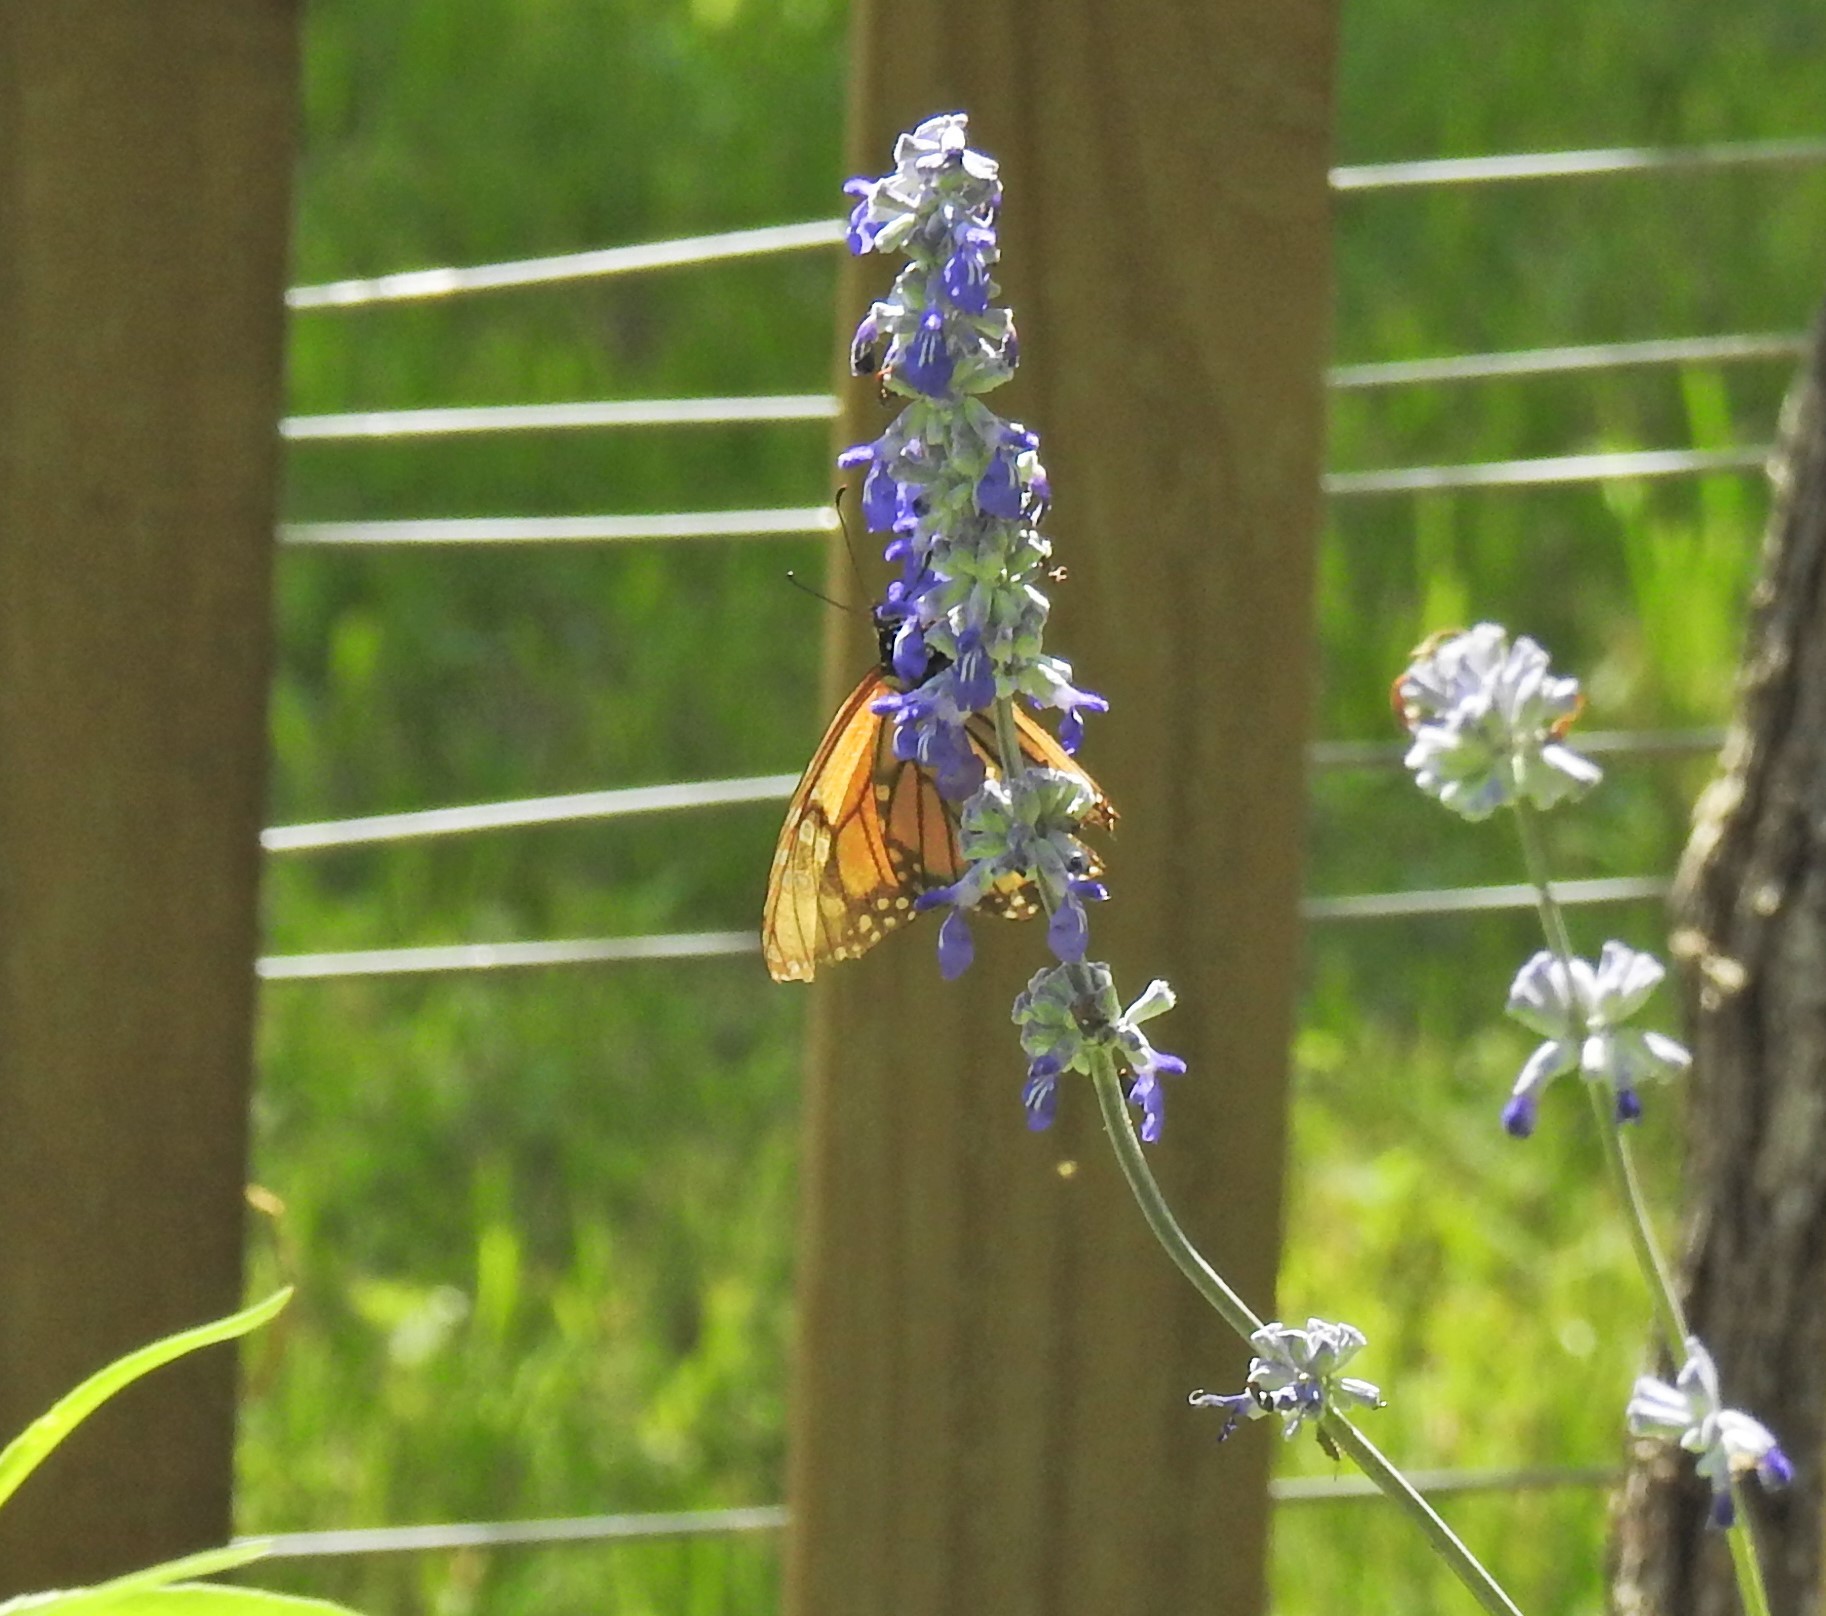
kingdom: Animalia
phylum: Arthropoda
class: Insecta
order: Lepidoptera
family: Nymphalidae
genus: Danaus
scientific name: Danaus plexippus
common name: Monarch
